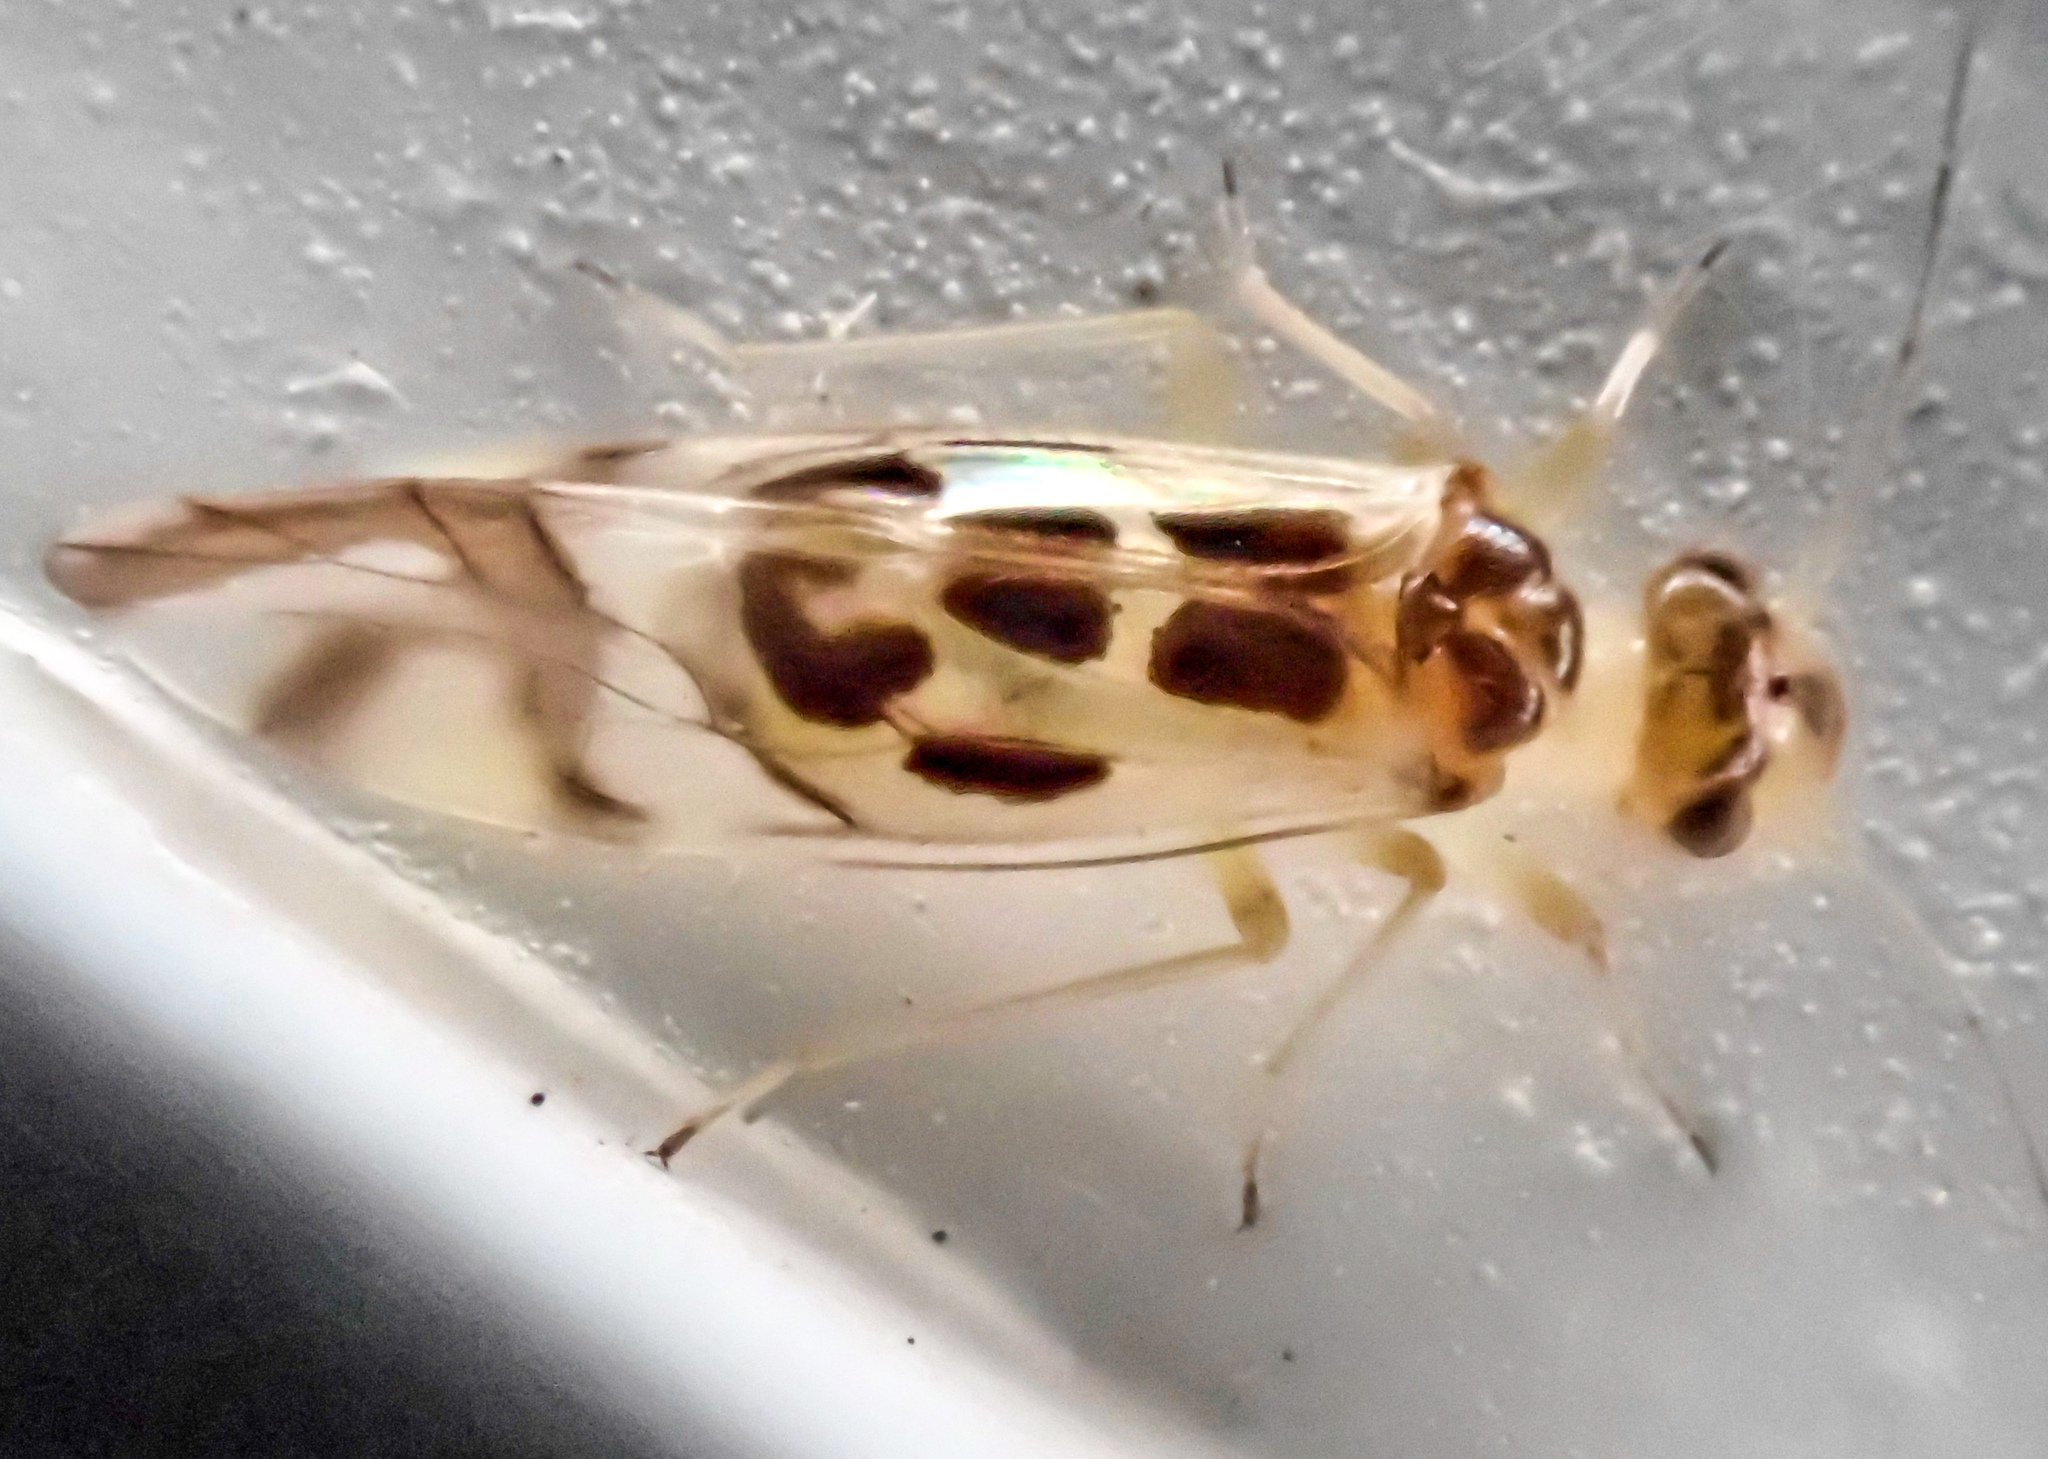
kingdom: Animalia
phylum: Arthropoda
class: Insecta
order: Psocodea
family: Stenopsocidae
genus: Graphopsocus
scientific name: Graphopsocus cruciatus
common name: Lizard bark louse
